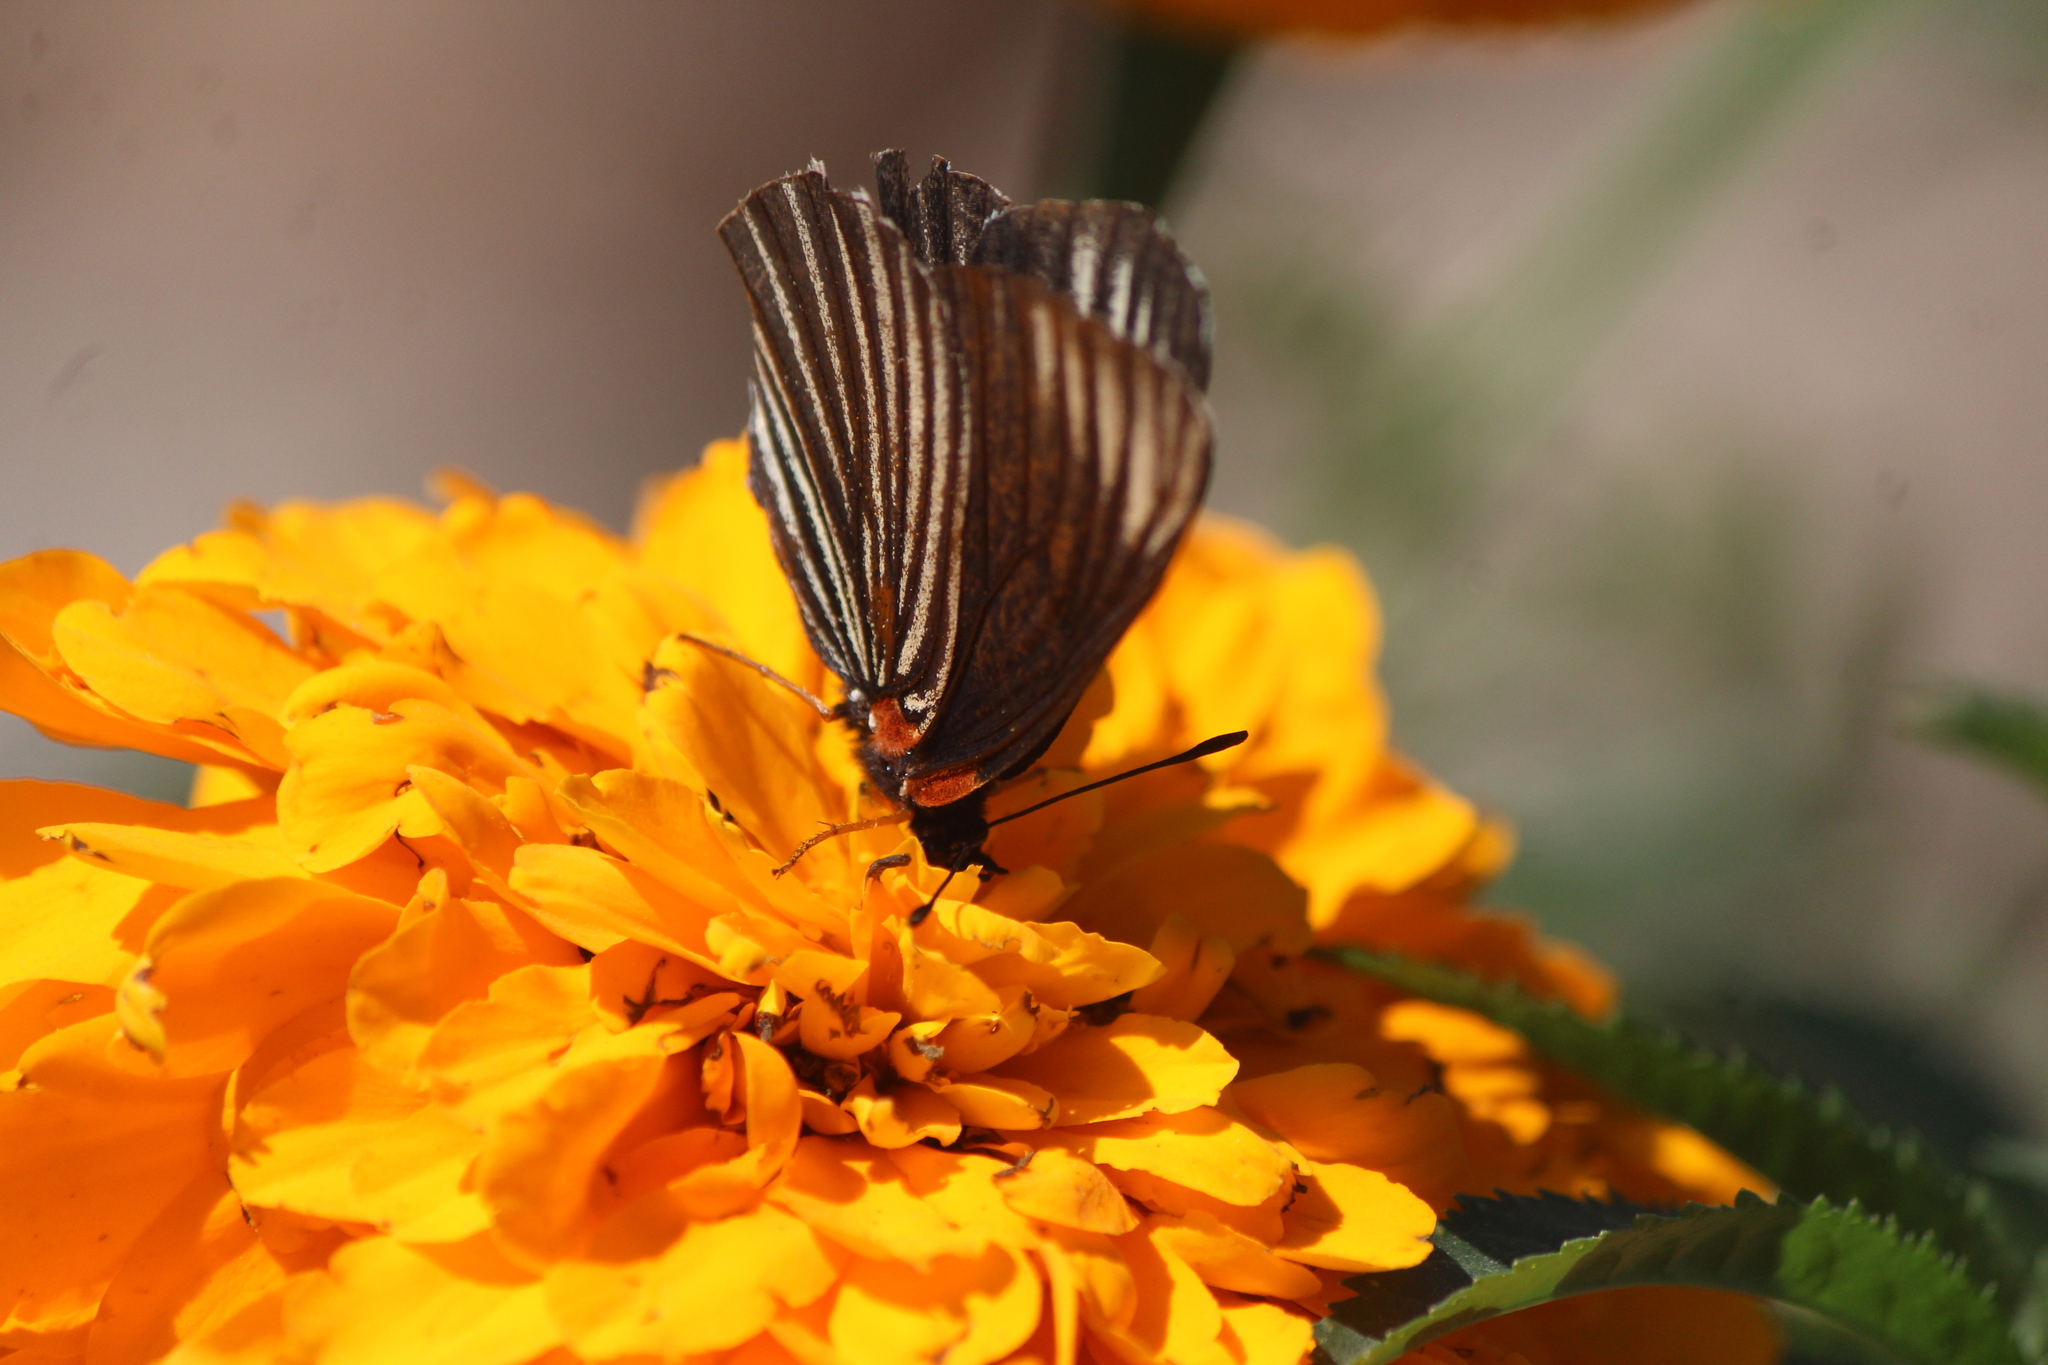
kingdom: Animalia
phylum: Arthropoda
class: Insecta
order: Lepidoptera
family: Nymphalidae
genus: Chlosyne
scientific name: Chlosyne ehrenbergii
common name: White-rayed patch
